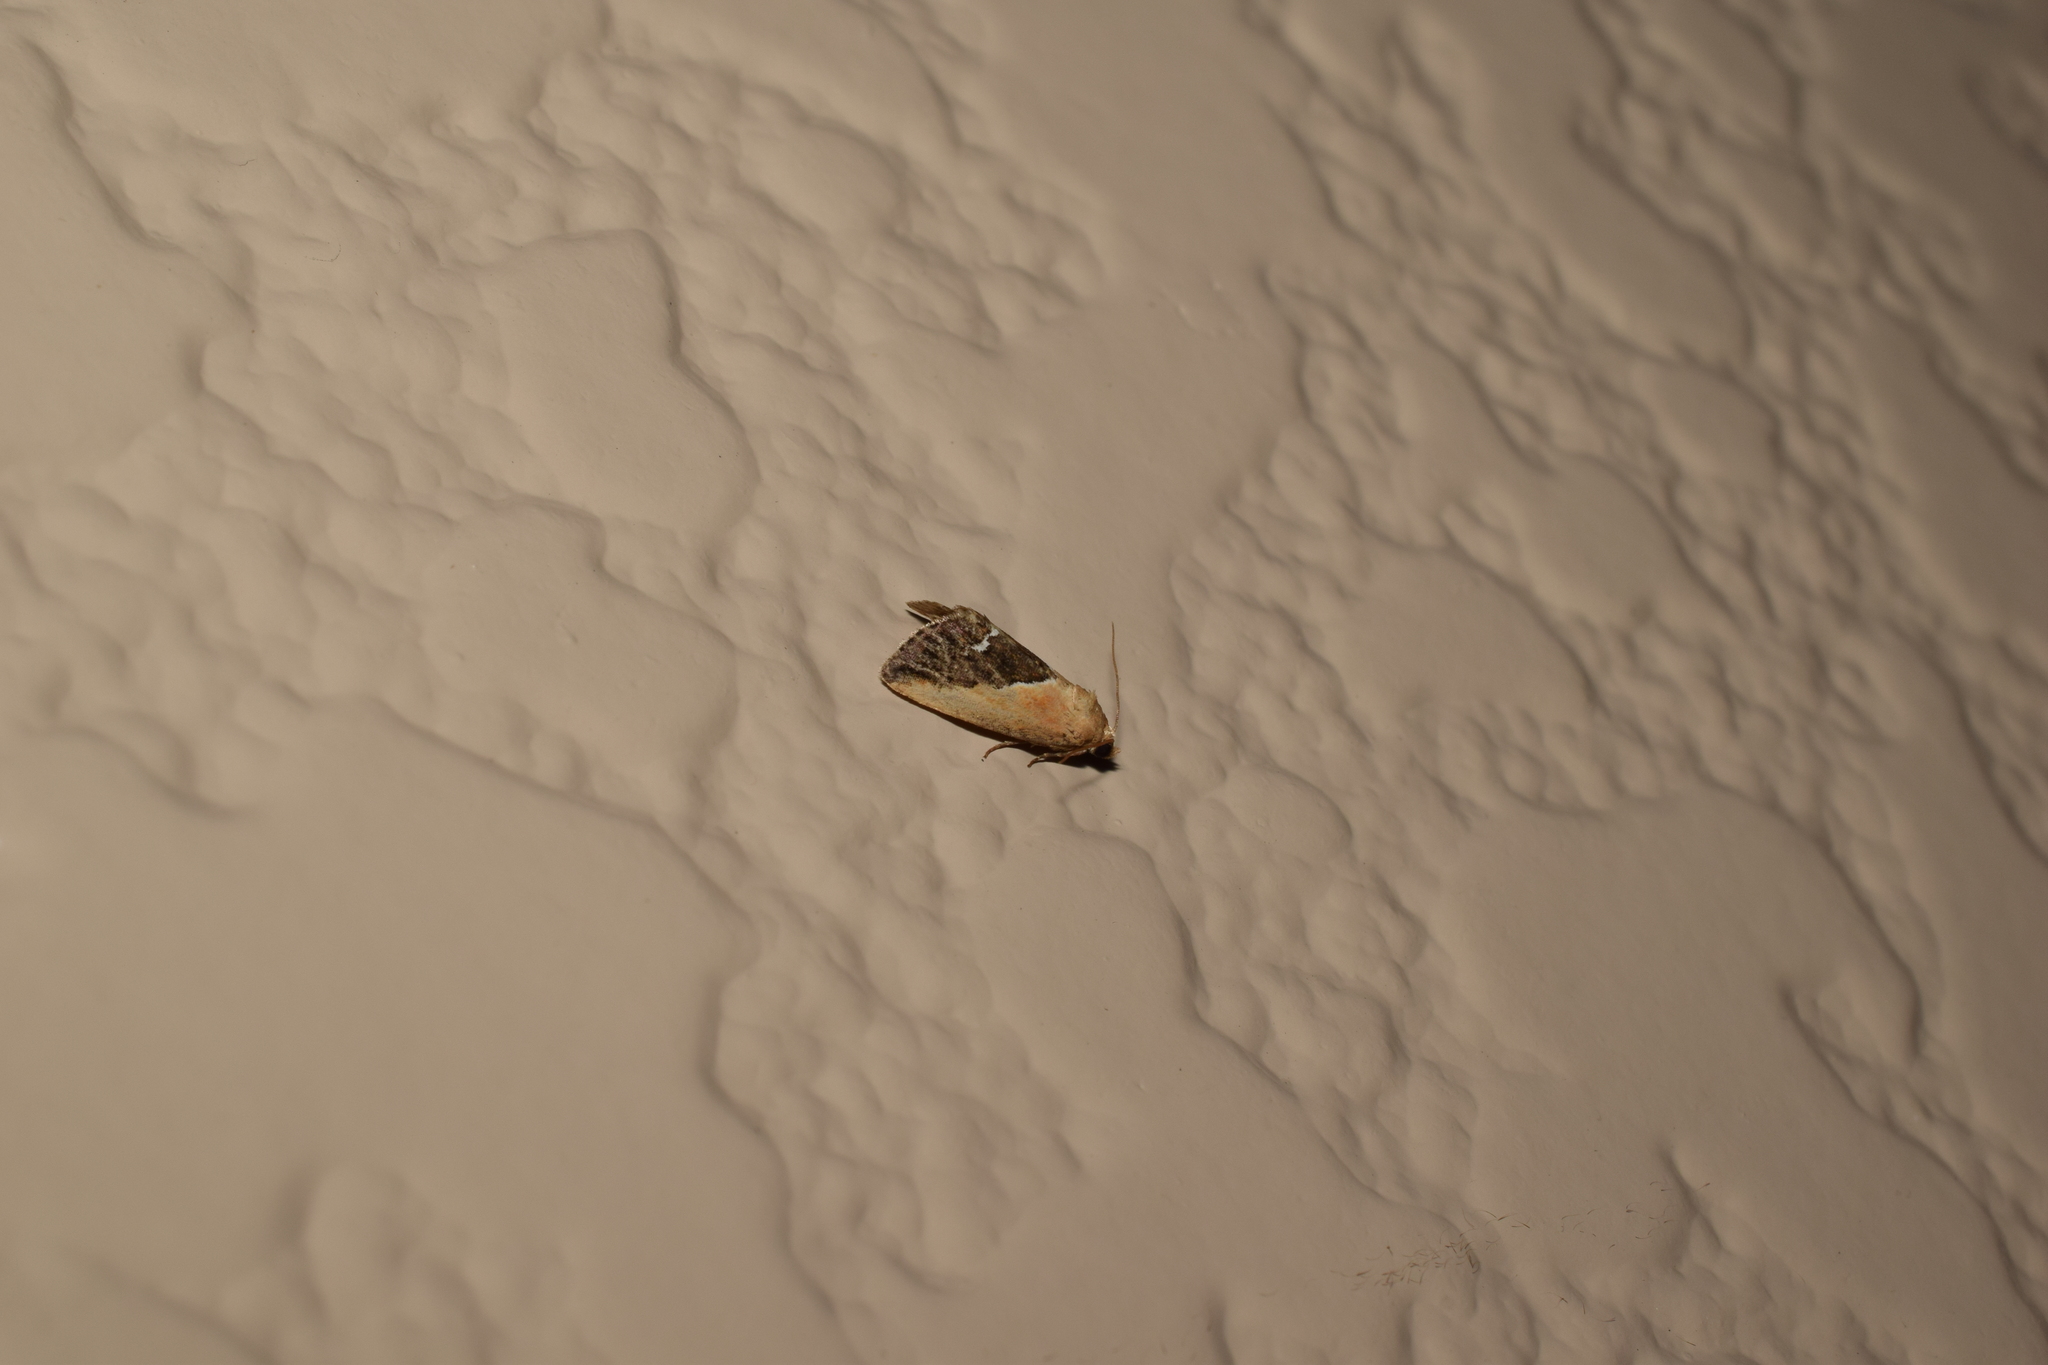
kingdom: Animalia
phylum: Arthropoda
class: Insecta
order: Lepidoptera
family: Noctuidae
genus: Maliattha
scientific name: Maliattha
